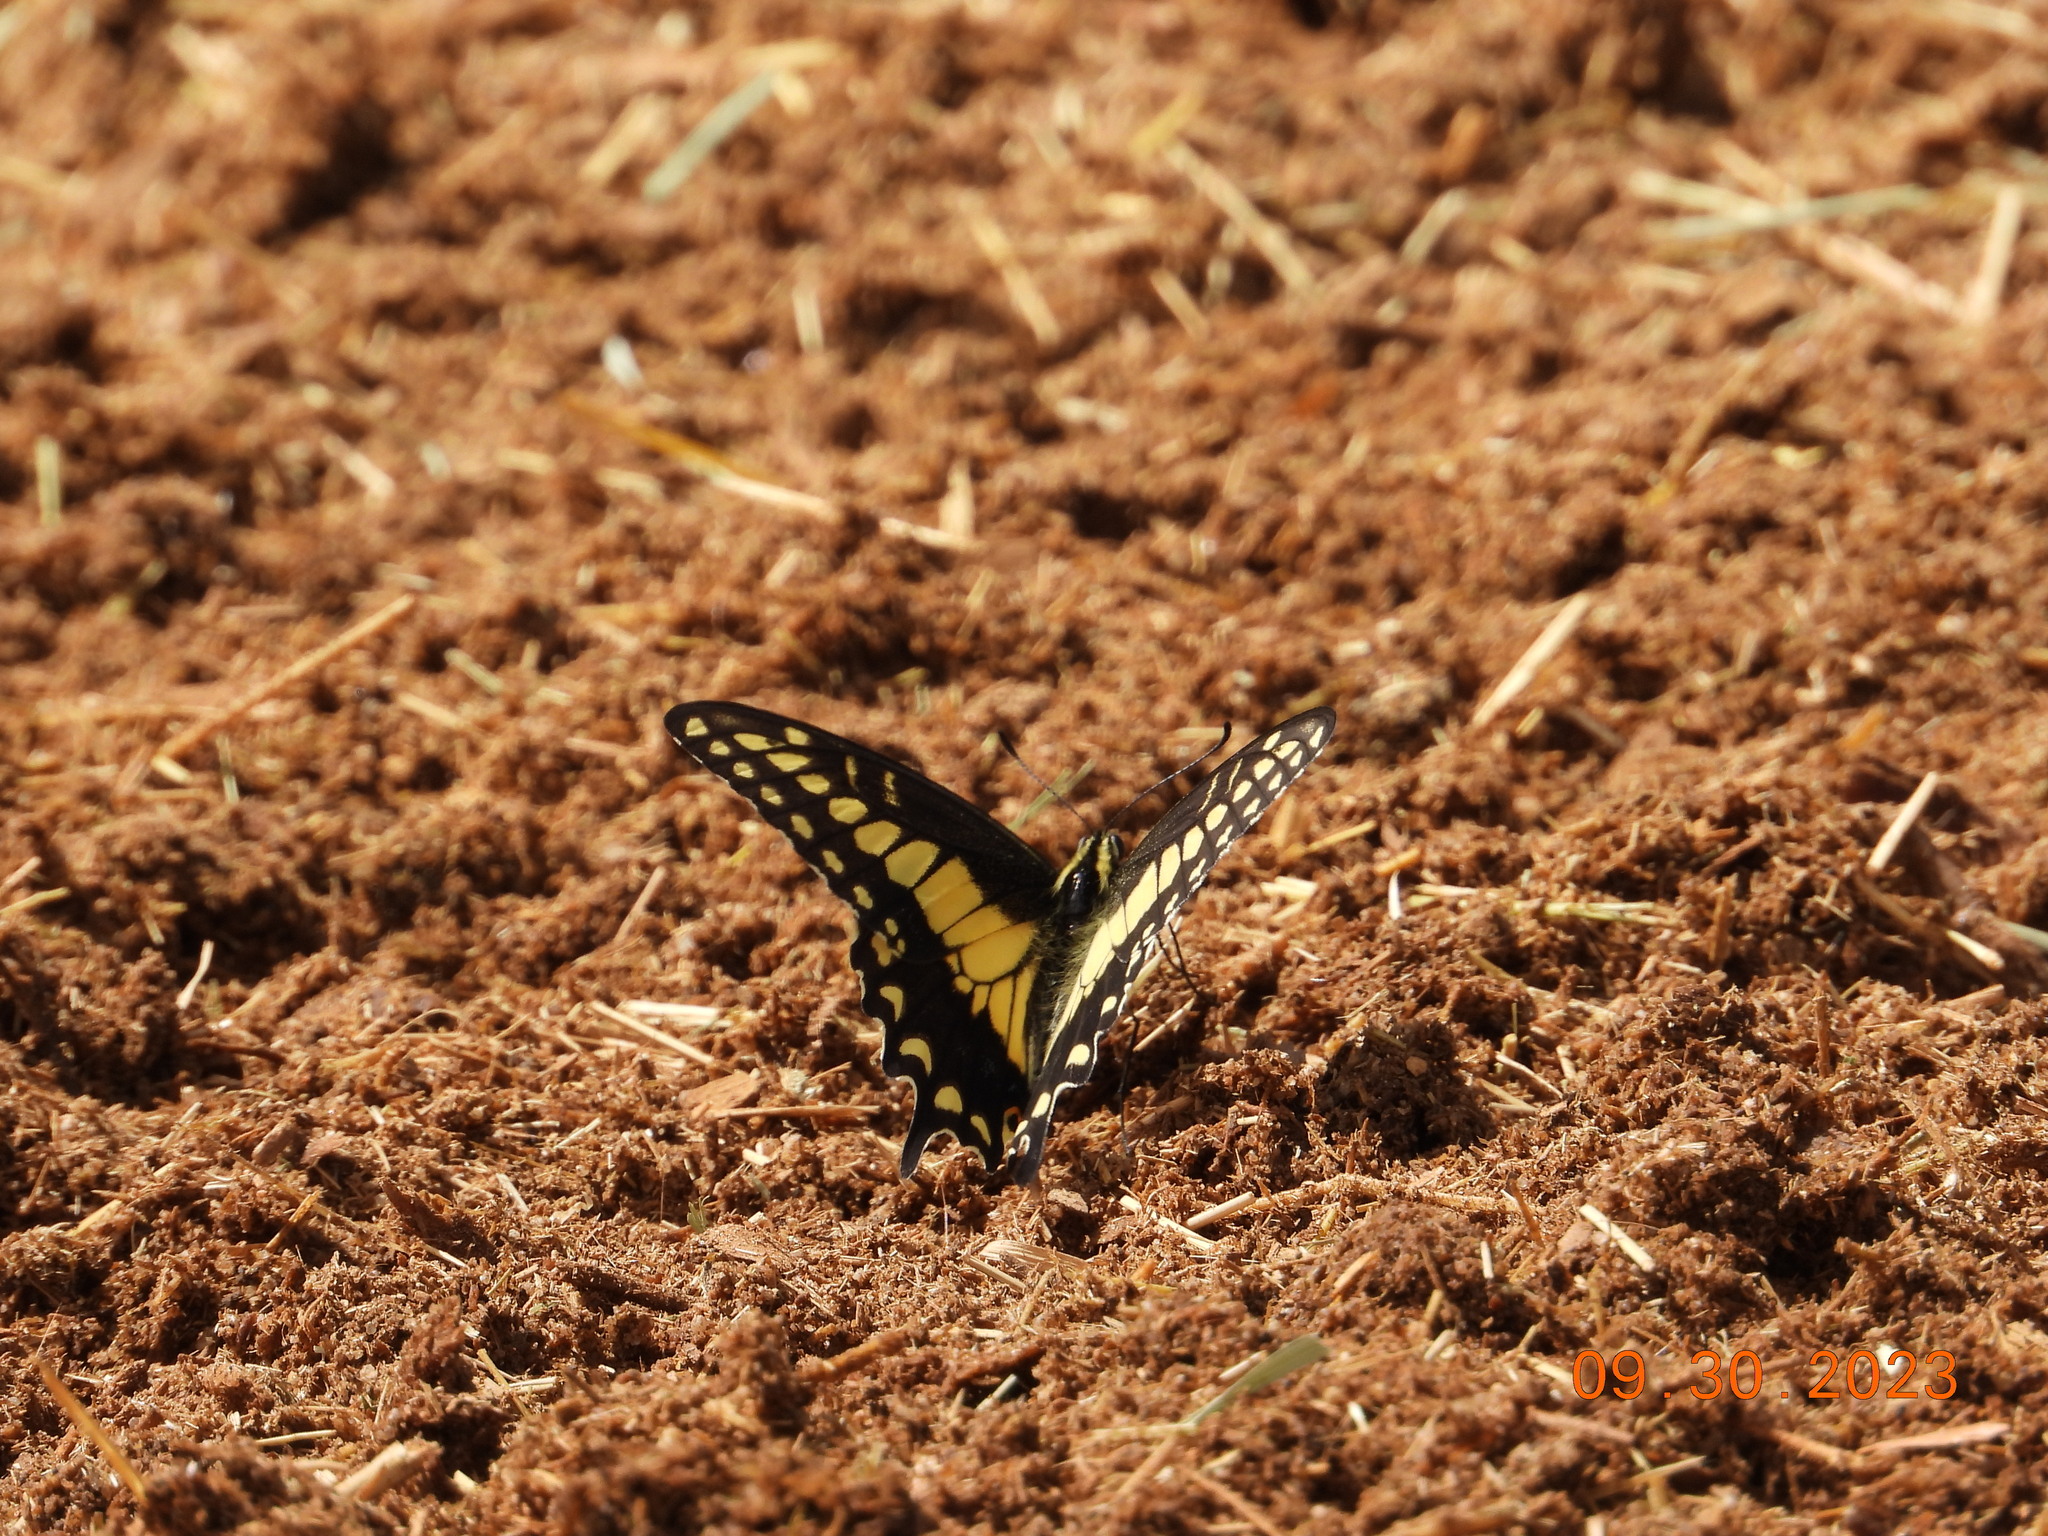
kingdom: Animalia
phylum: Arthropoda
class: Insecta
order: Lepidoptera
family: Papilionidae
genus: Papilio
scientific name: Papilio polyxenes
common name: Black swallowtail
